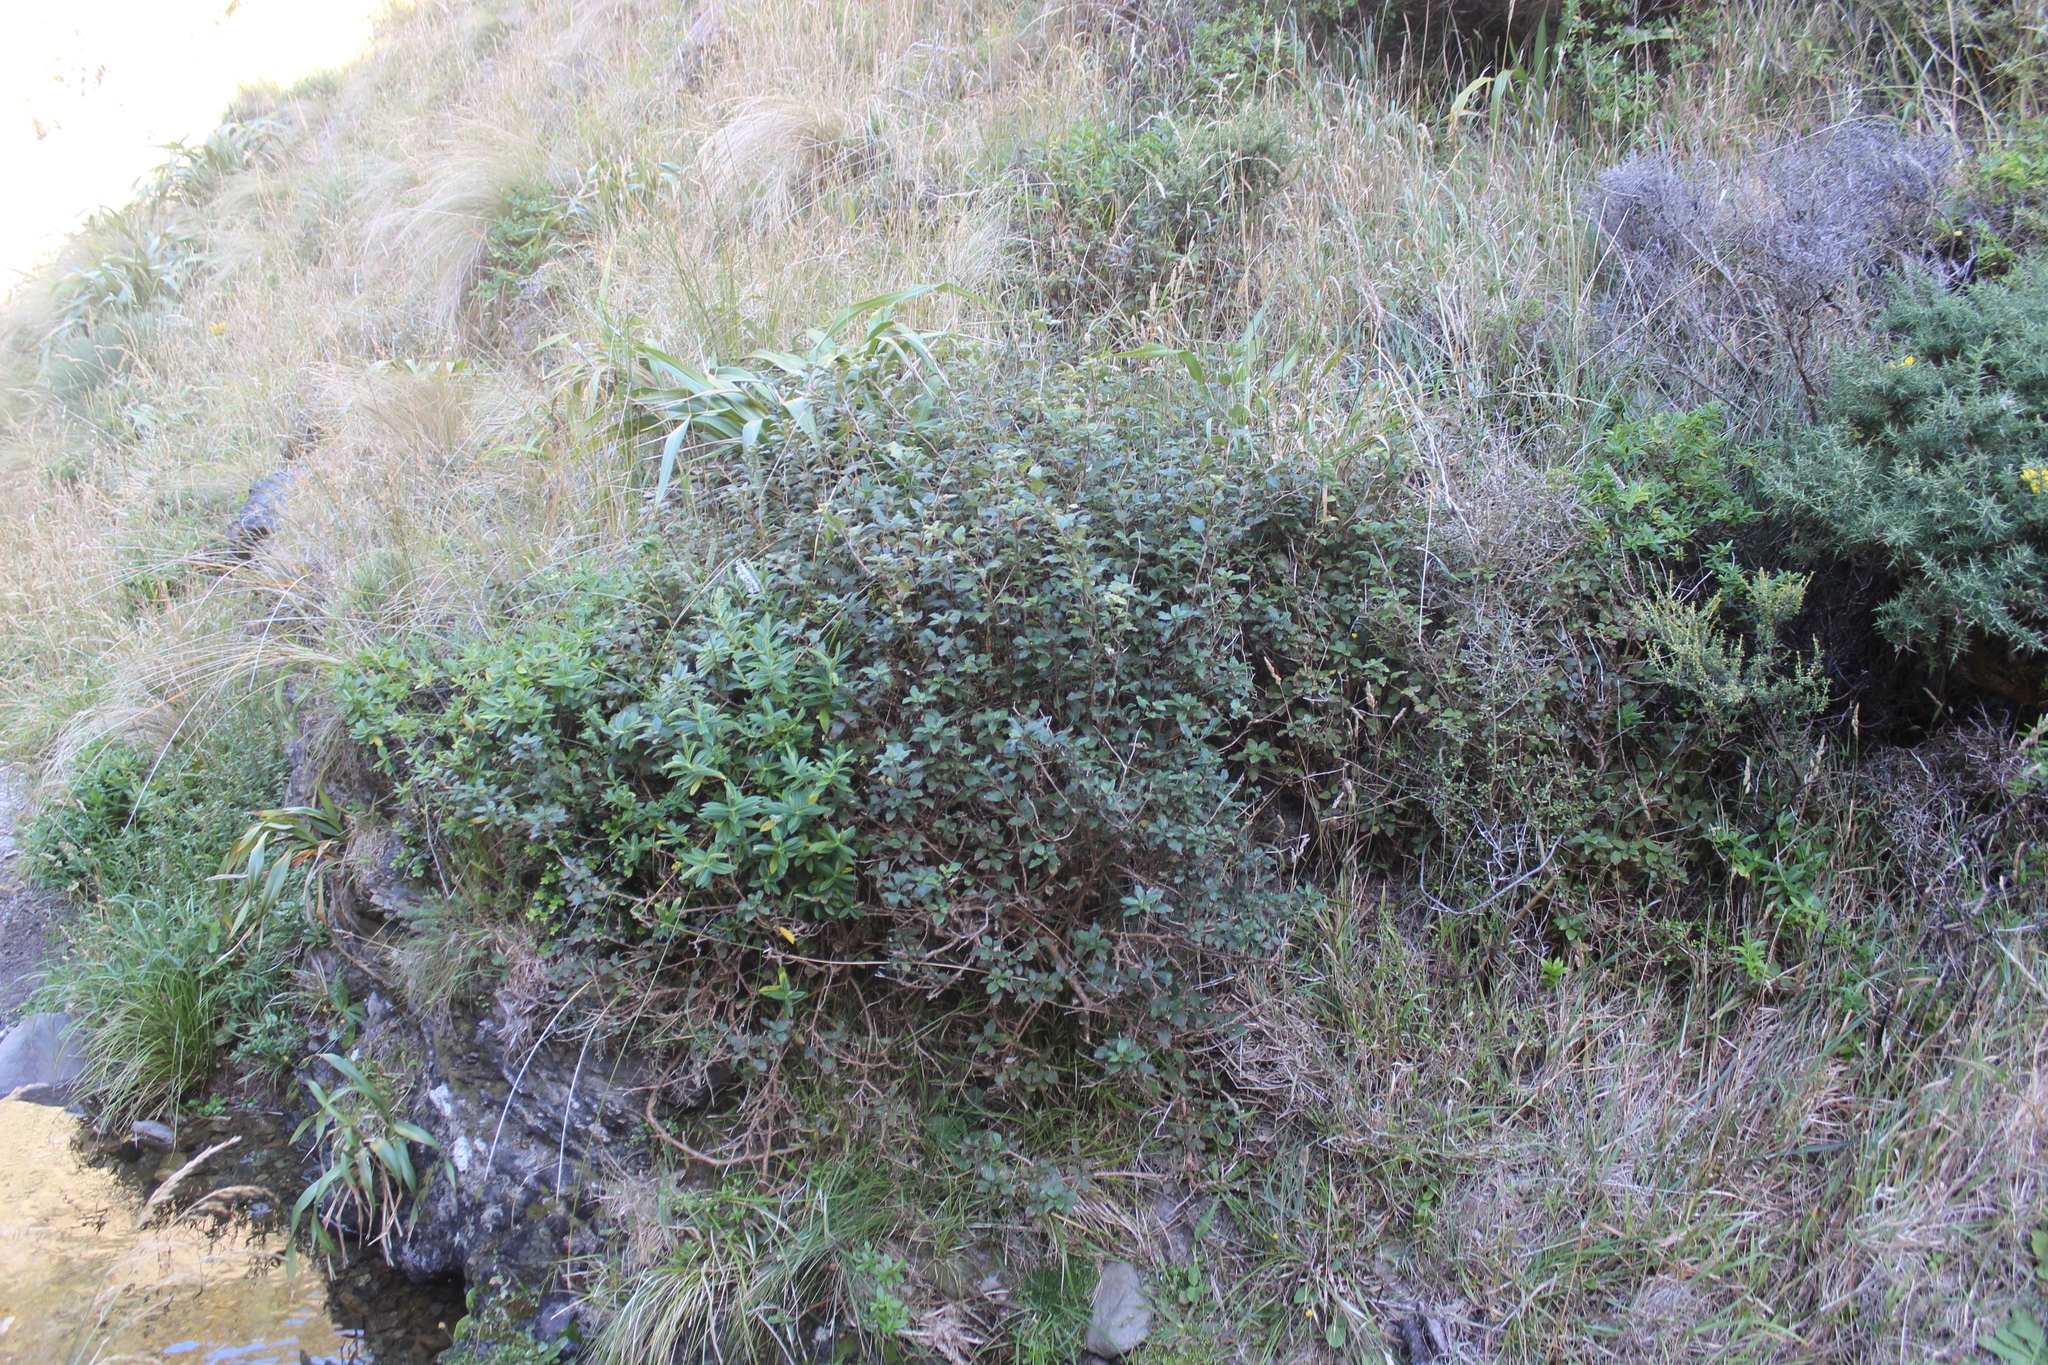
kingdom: Plantae
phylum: Tracheophyta
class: Magnoliopsida
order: Myrtales
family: Onagraceae
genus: Fuchsia
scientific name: Fuchsia colensoi
